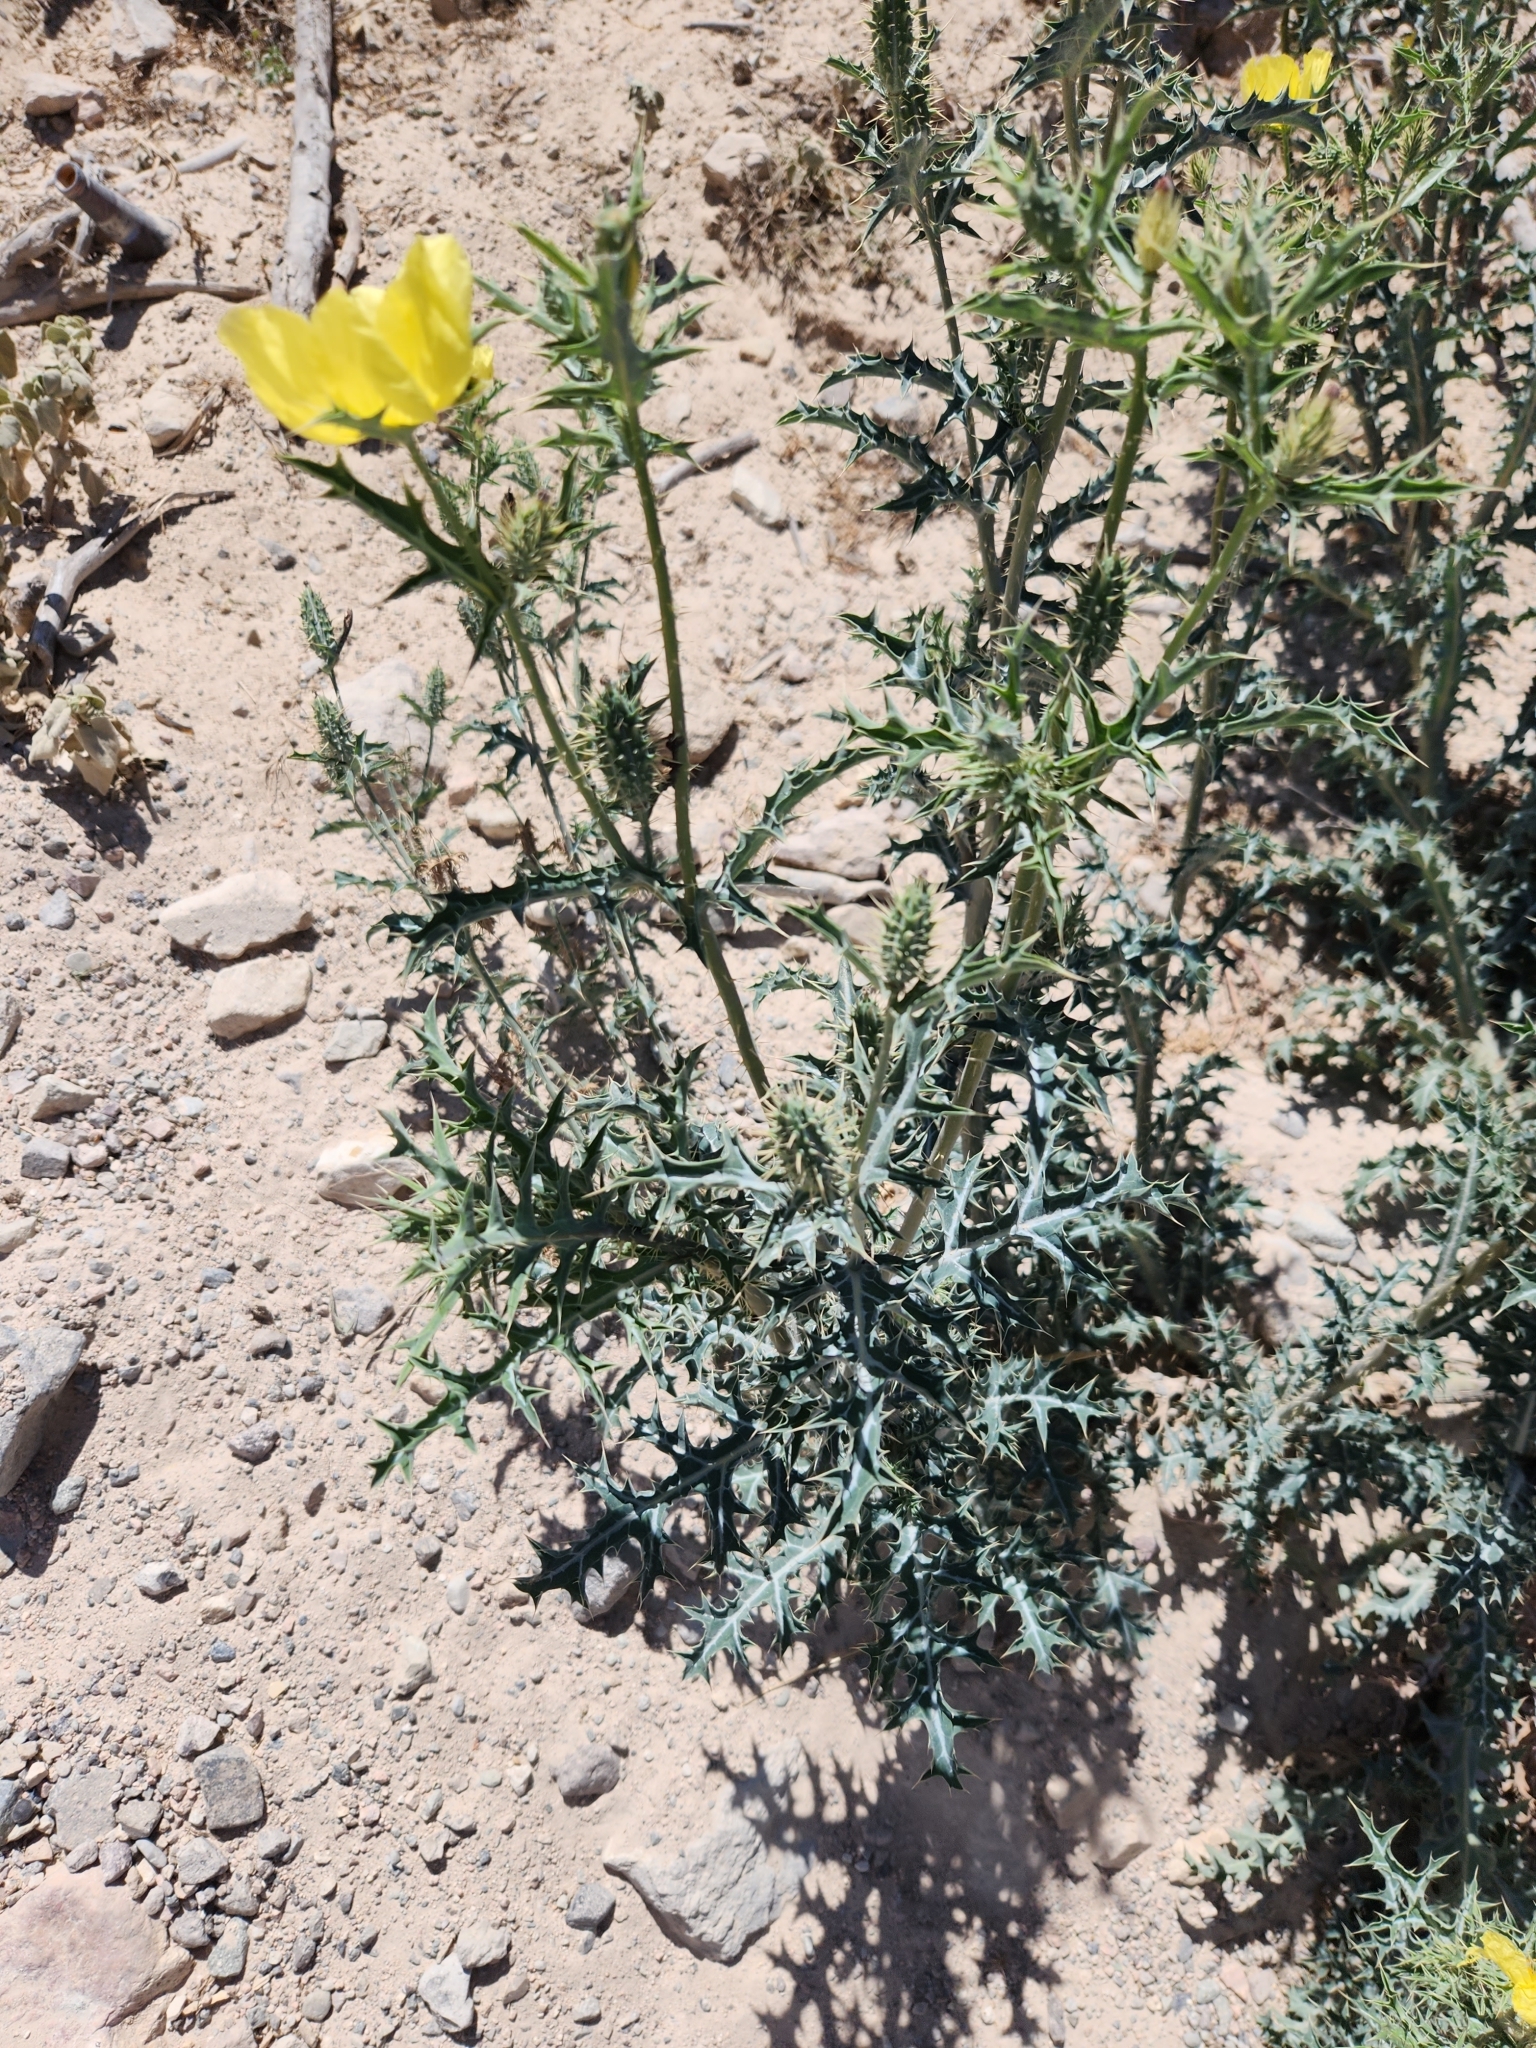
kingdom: Plantae
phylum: Tracheophyta
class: Magnoliopsida
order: Ranunculales
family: Papaveraceae
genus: Argemone
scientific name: Argemone mexicana
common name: Mexican poppy
